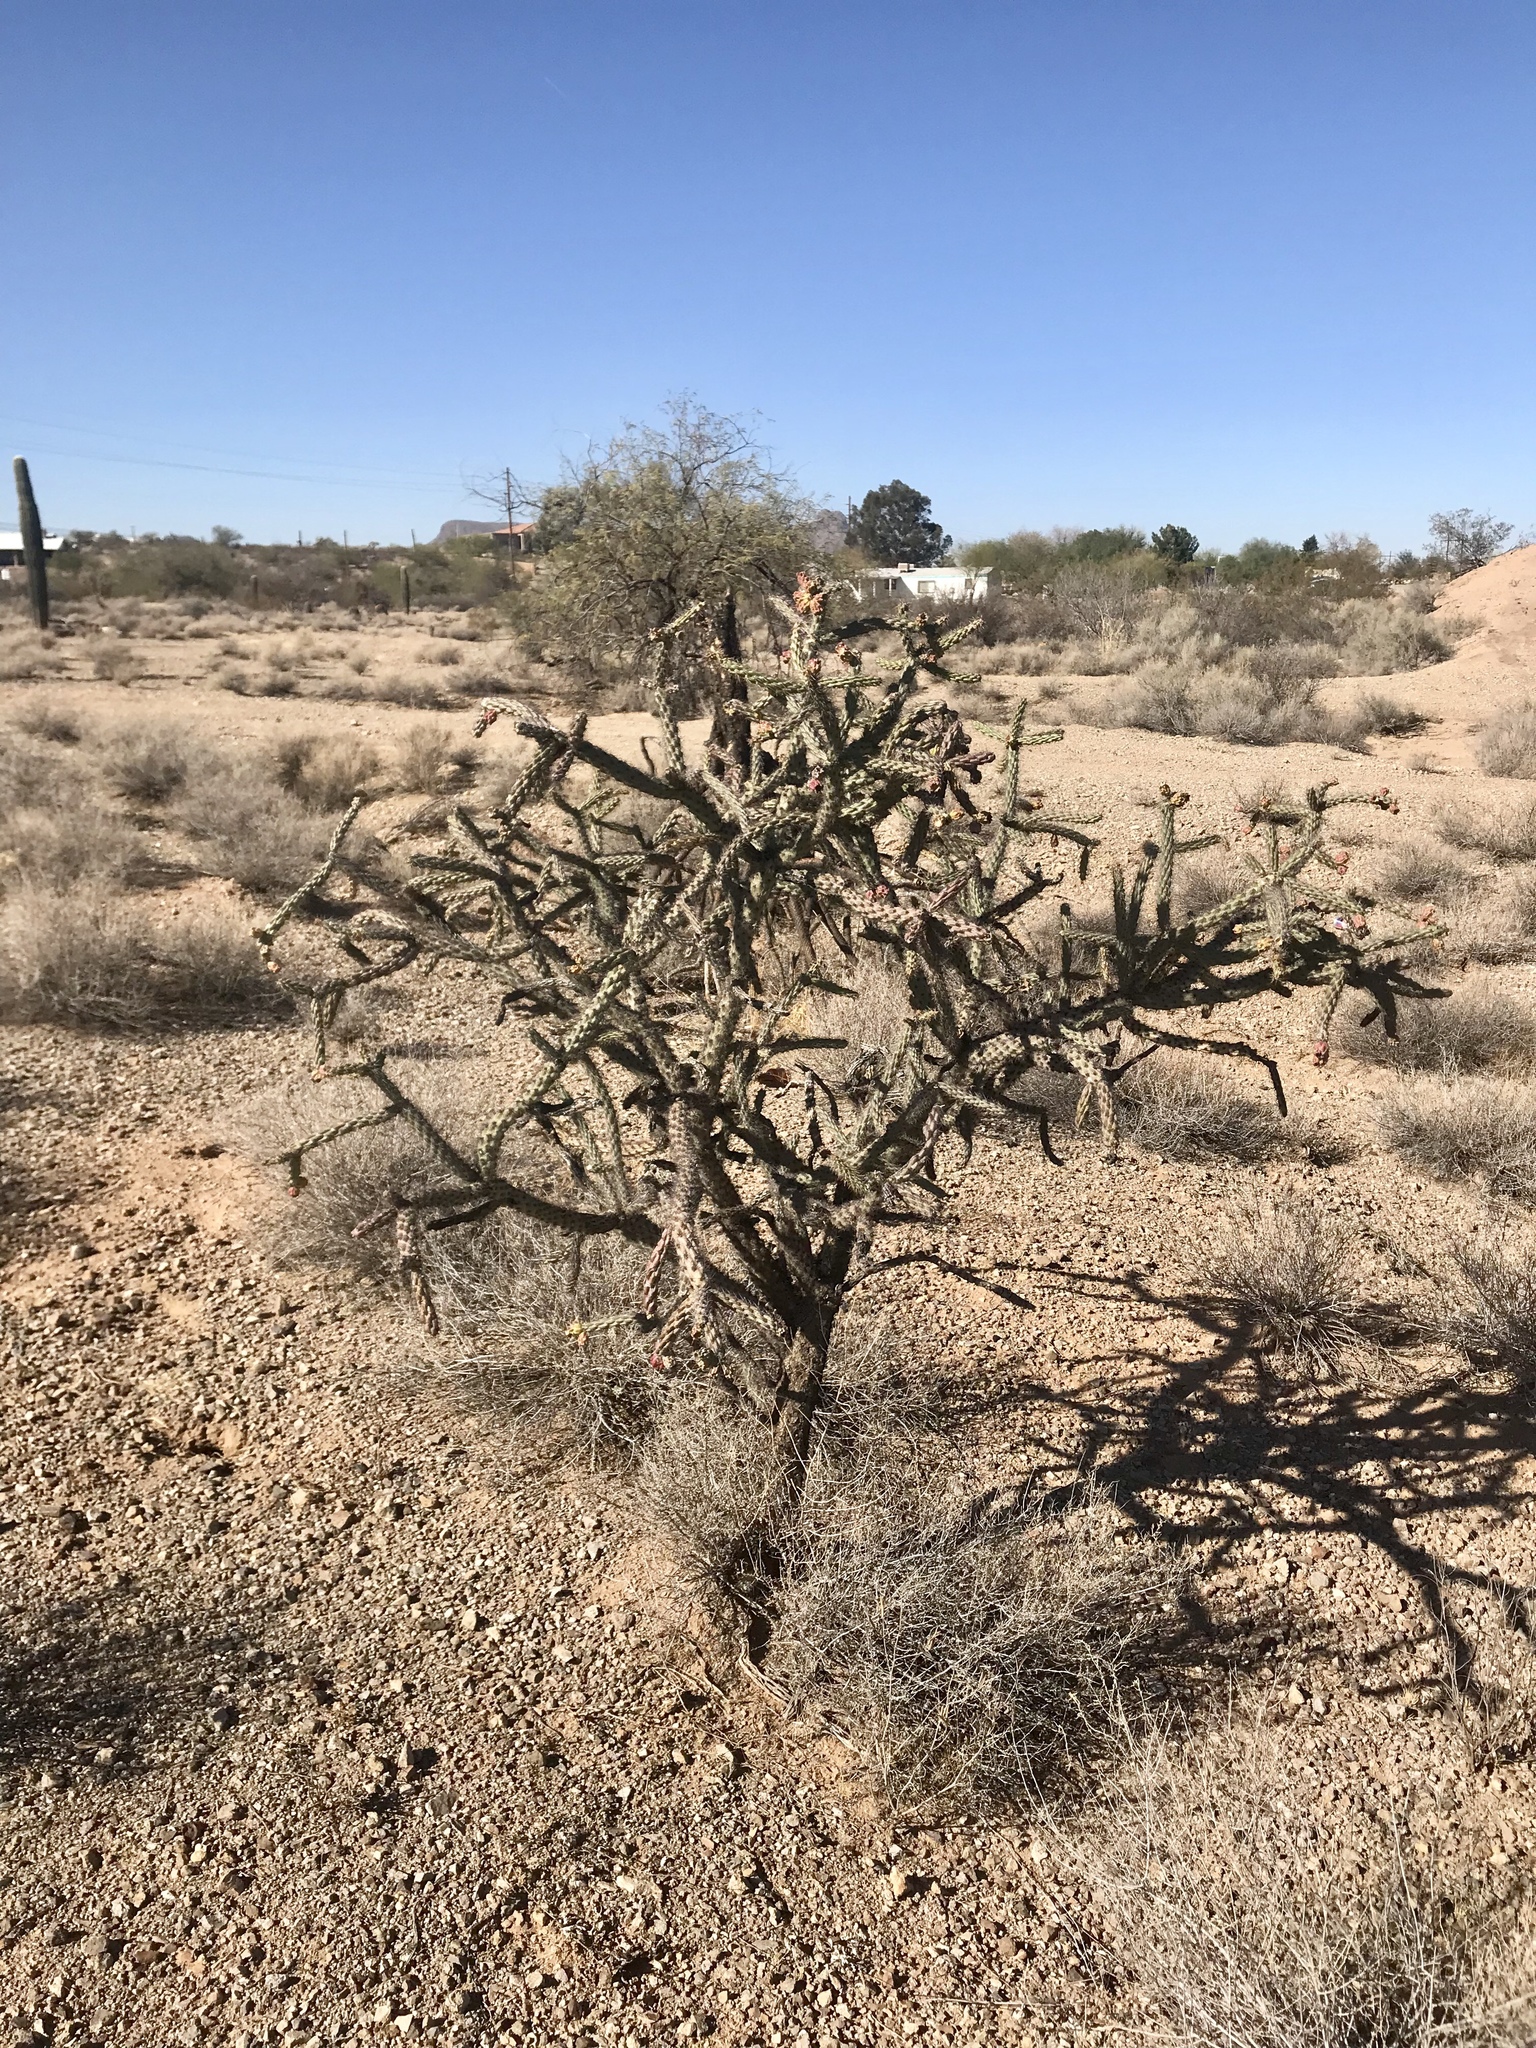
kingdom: Plantae
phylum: Tracheophyta
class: Magnoliopsida
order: Caryophyllales
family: Cactaceae
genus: Cylindropuntia
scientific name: Cylindropuntia thurberi
